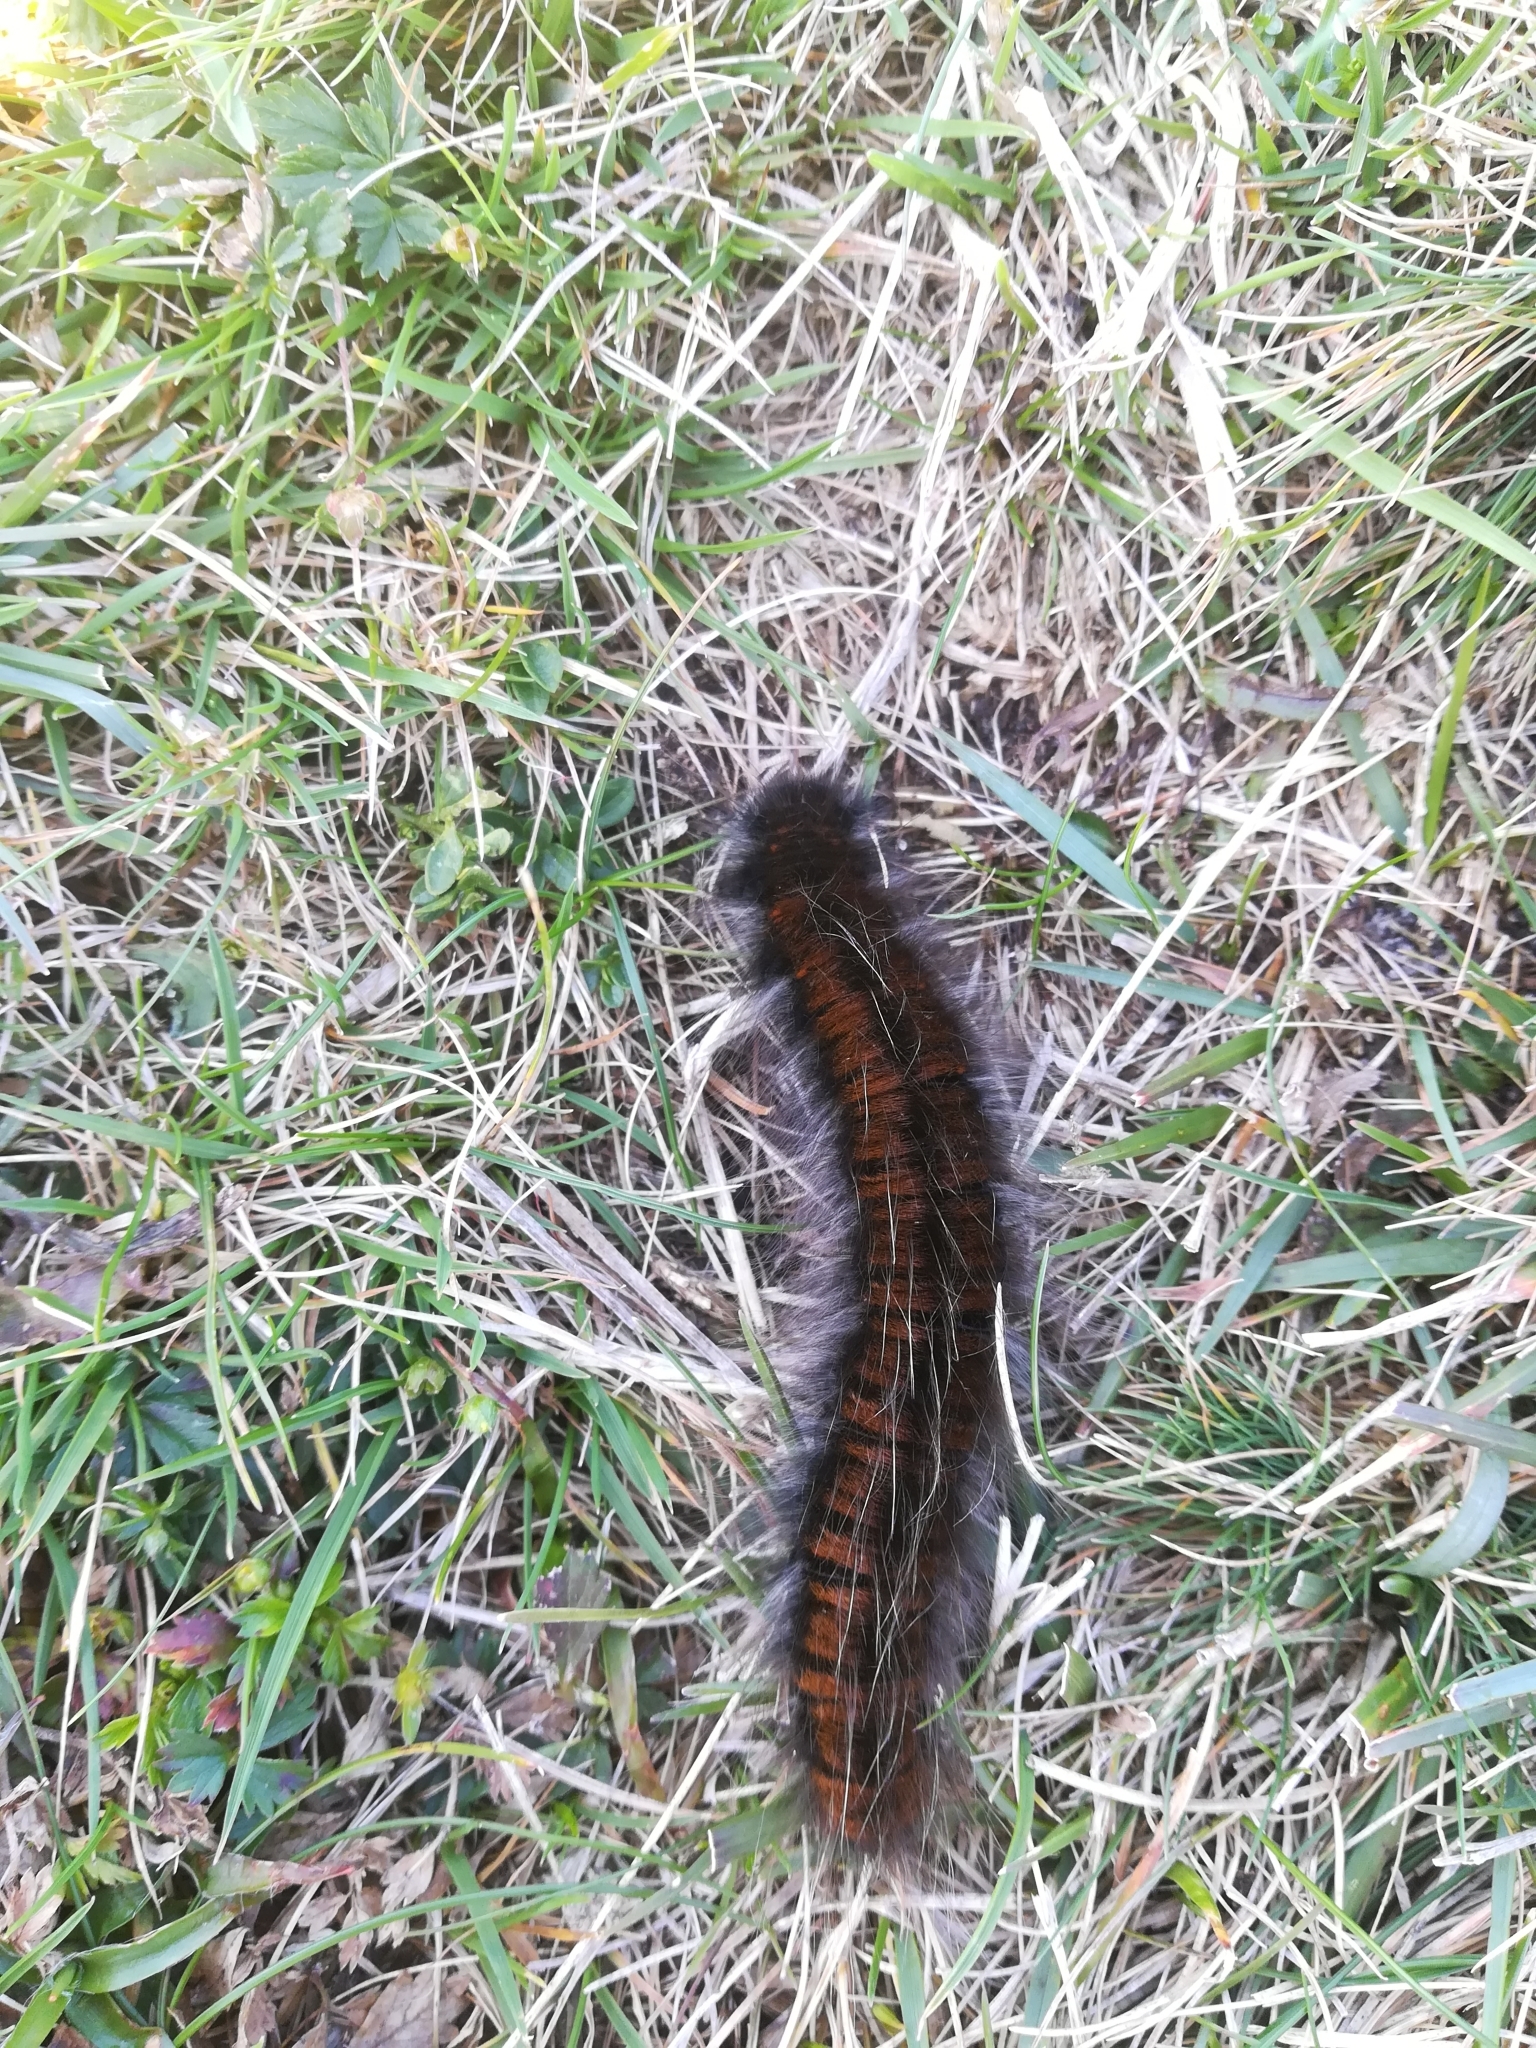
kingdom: Animalia
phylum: Arthropoda
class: Insecta
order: Lepidoptera
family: Lasiocampidae
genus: Macrothylacia
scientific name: Macrothylacia rubi
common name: Fox moth
